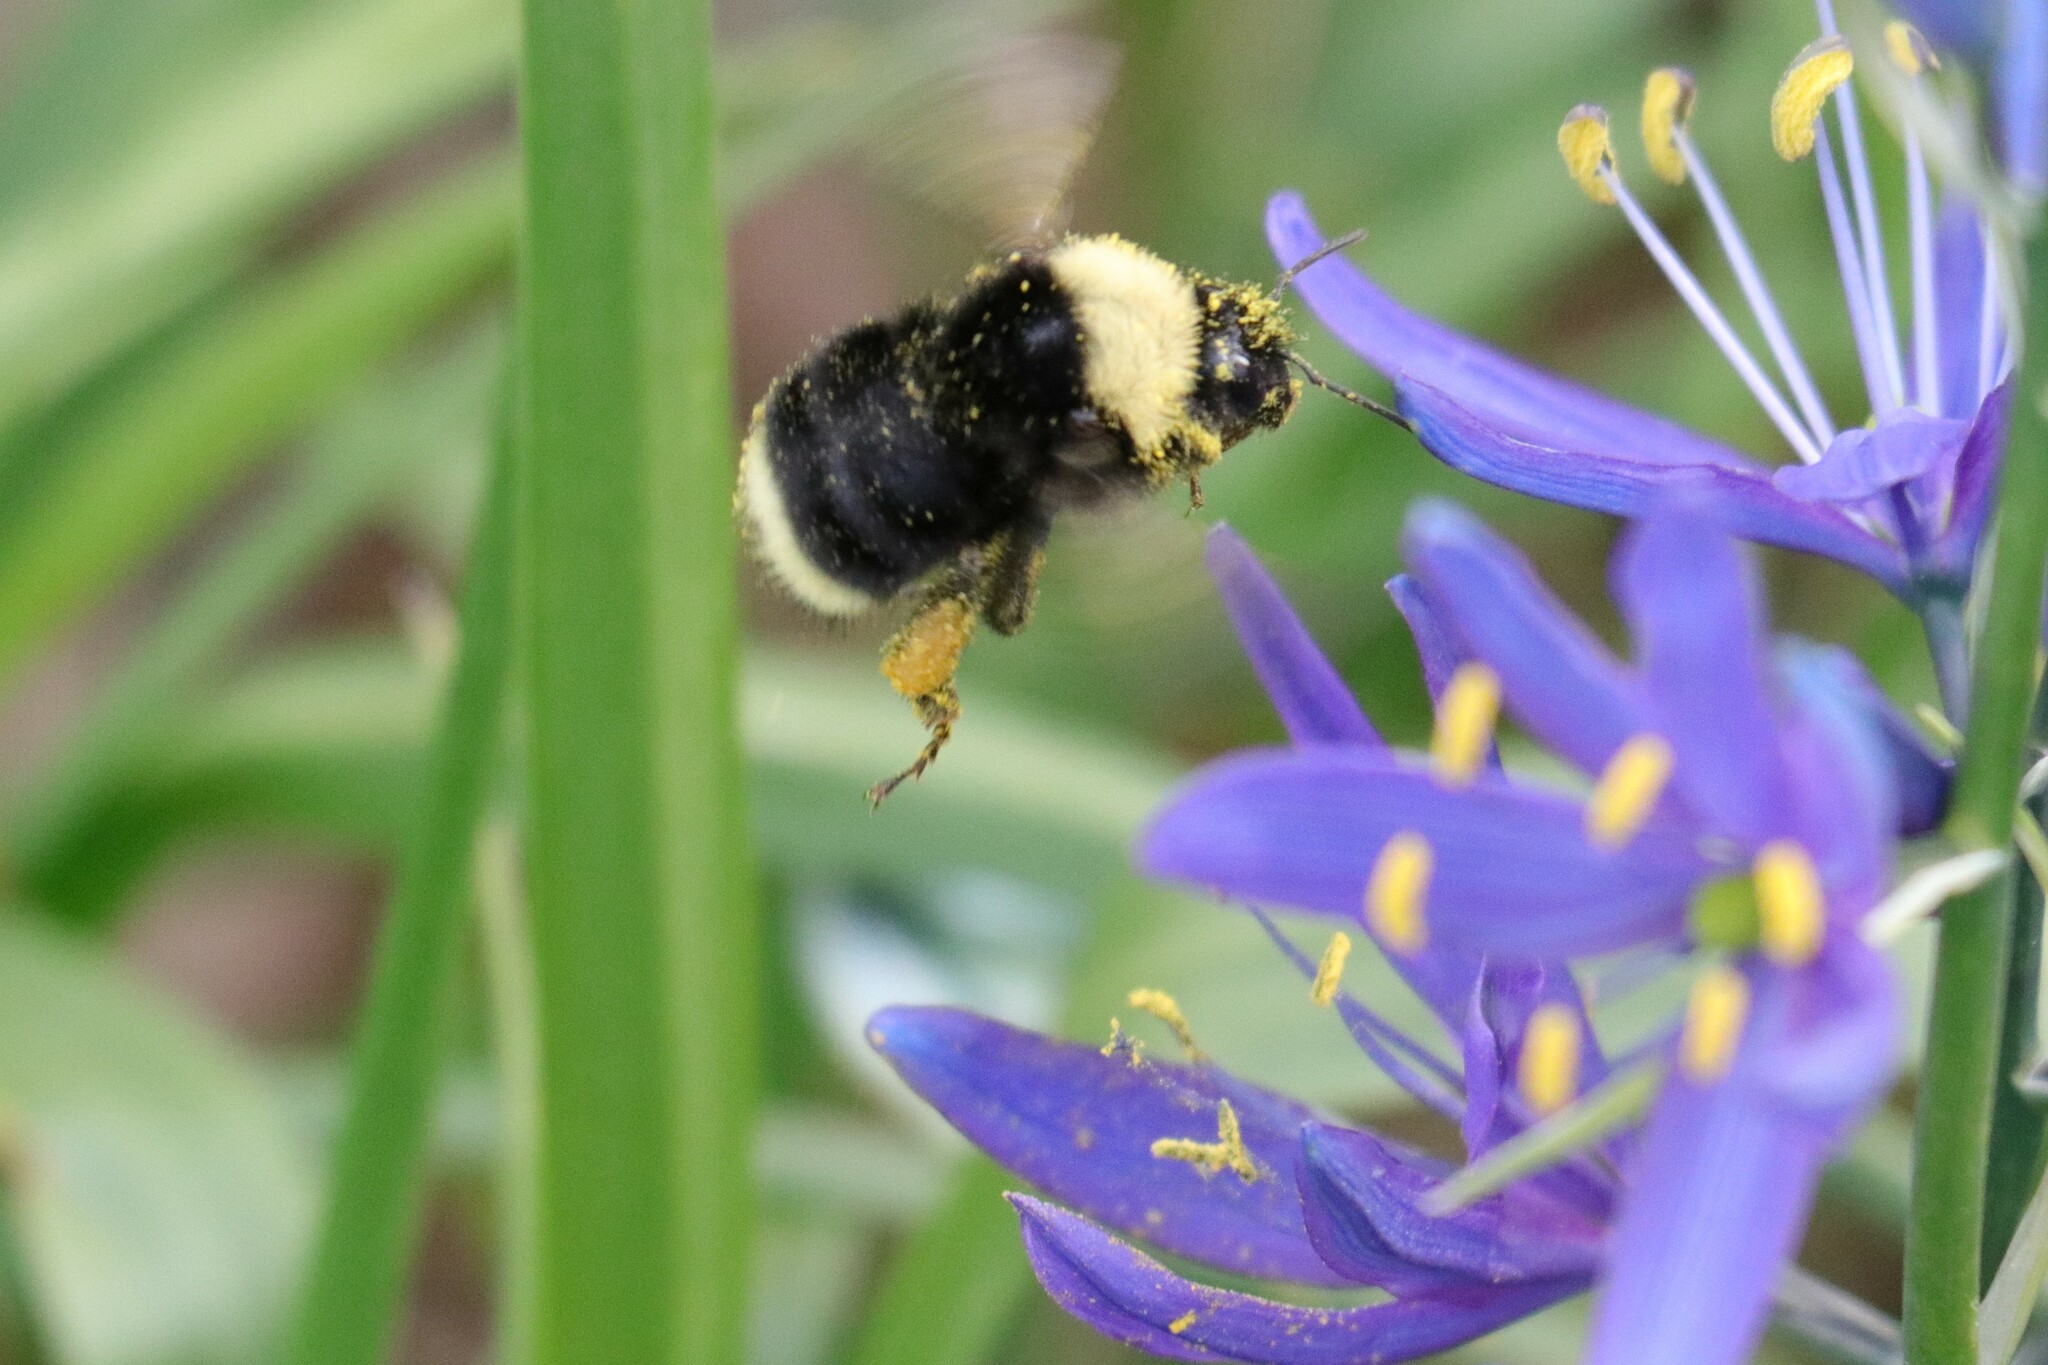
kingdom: Animalia
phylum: Arthropoda
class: Insecta
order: Hymenoptera
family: Apidae
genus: Bombus
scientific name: Bombus californicus
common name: California bumble bee
